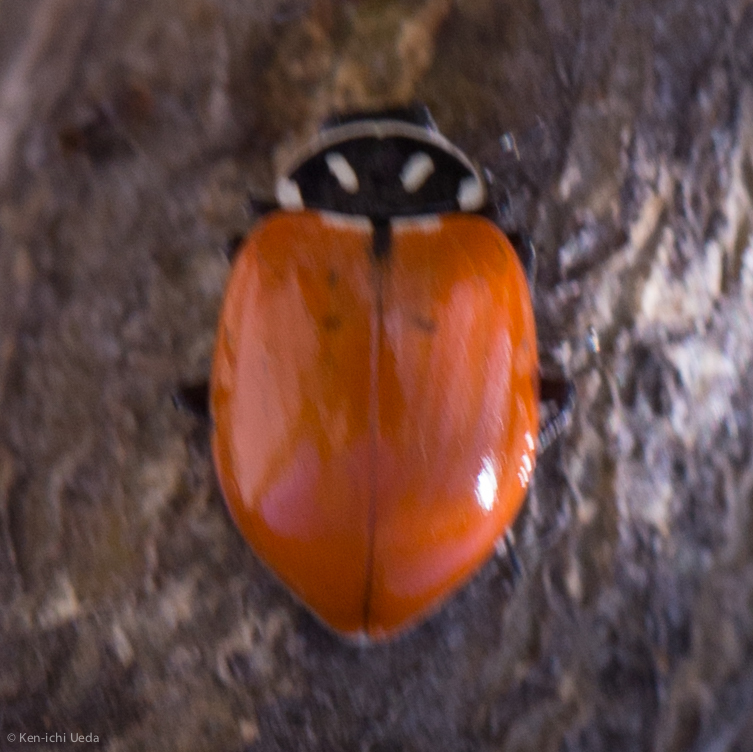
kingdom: Animalia
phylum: Arthropoda
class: Insecta
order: Coleoptera
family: Coccinellidae
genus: Hippodamia
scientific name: Hippodamia convergens
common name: Convergent lady beetle
